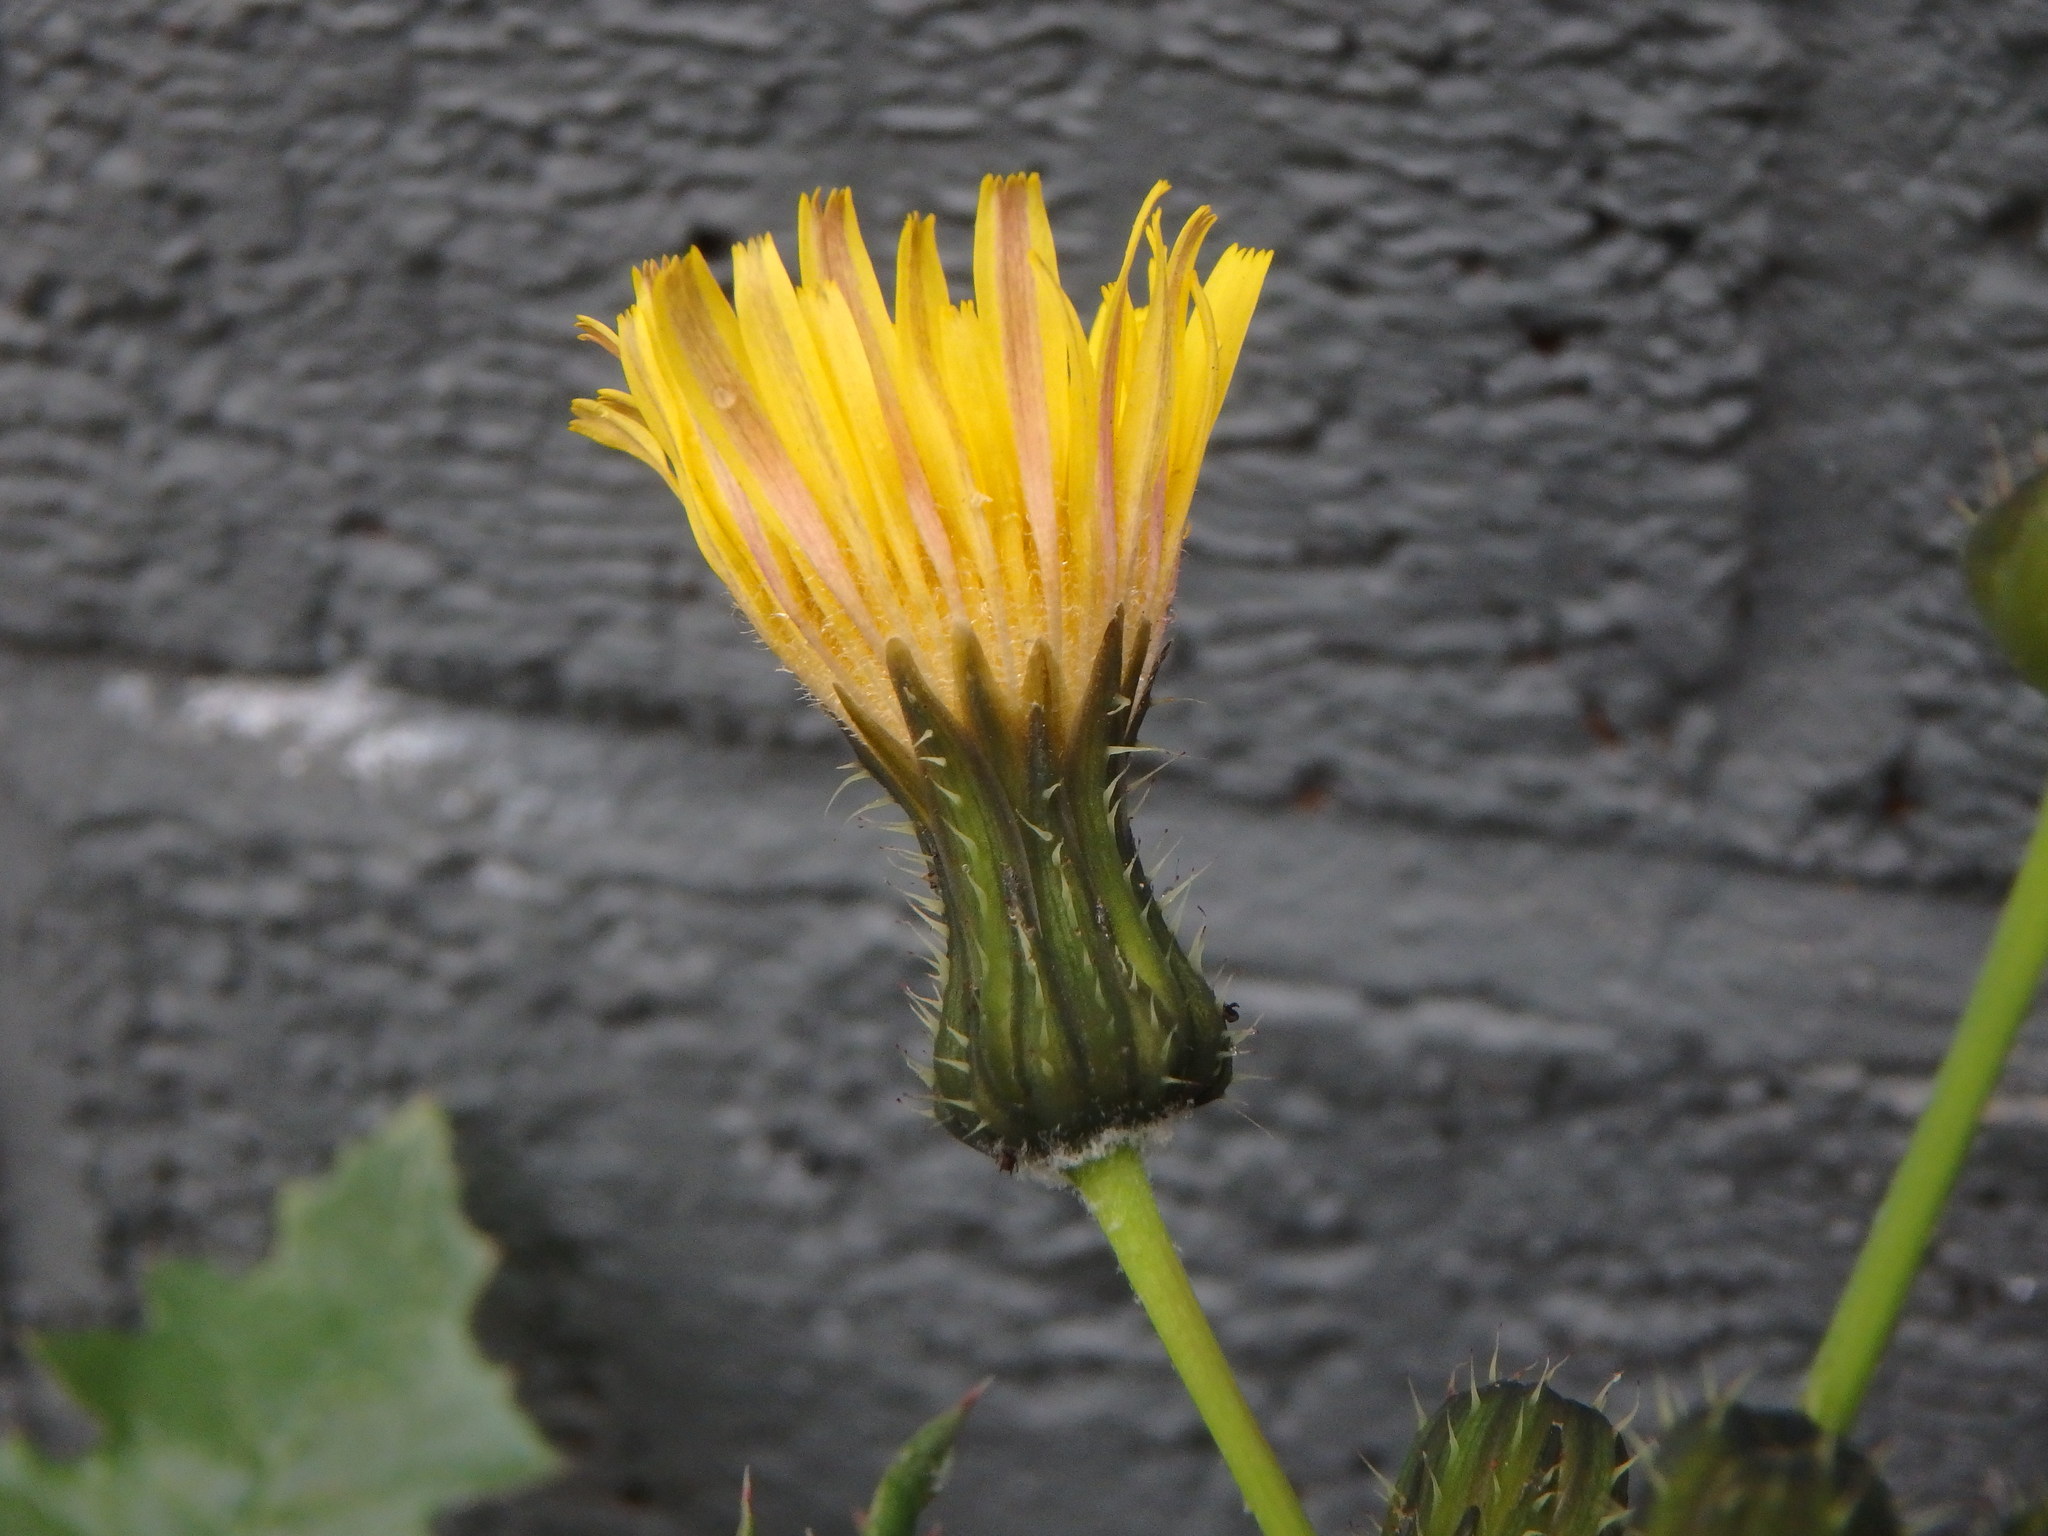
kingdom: Plantae
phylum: Tracheophyta
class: Magnoliopsida
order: Asterales
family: Asteraceae
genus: Sonchus
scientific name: Sonchus oleraceus
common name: Common sowthistle
